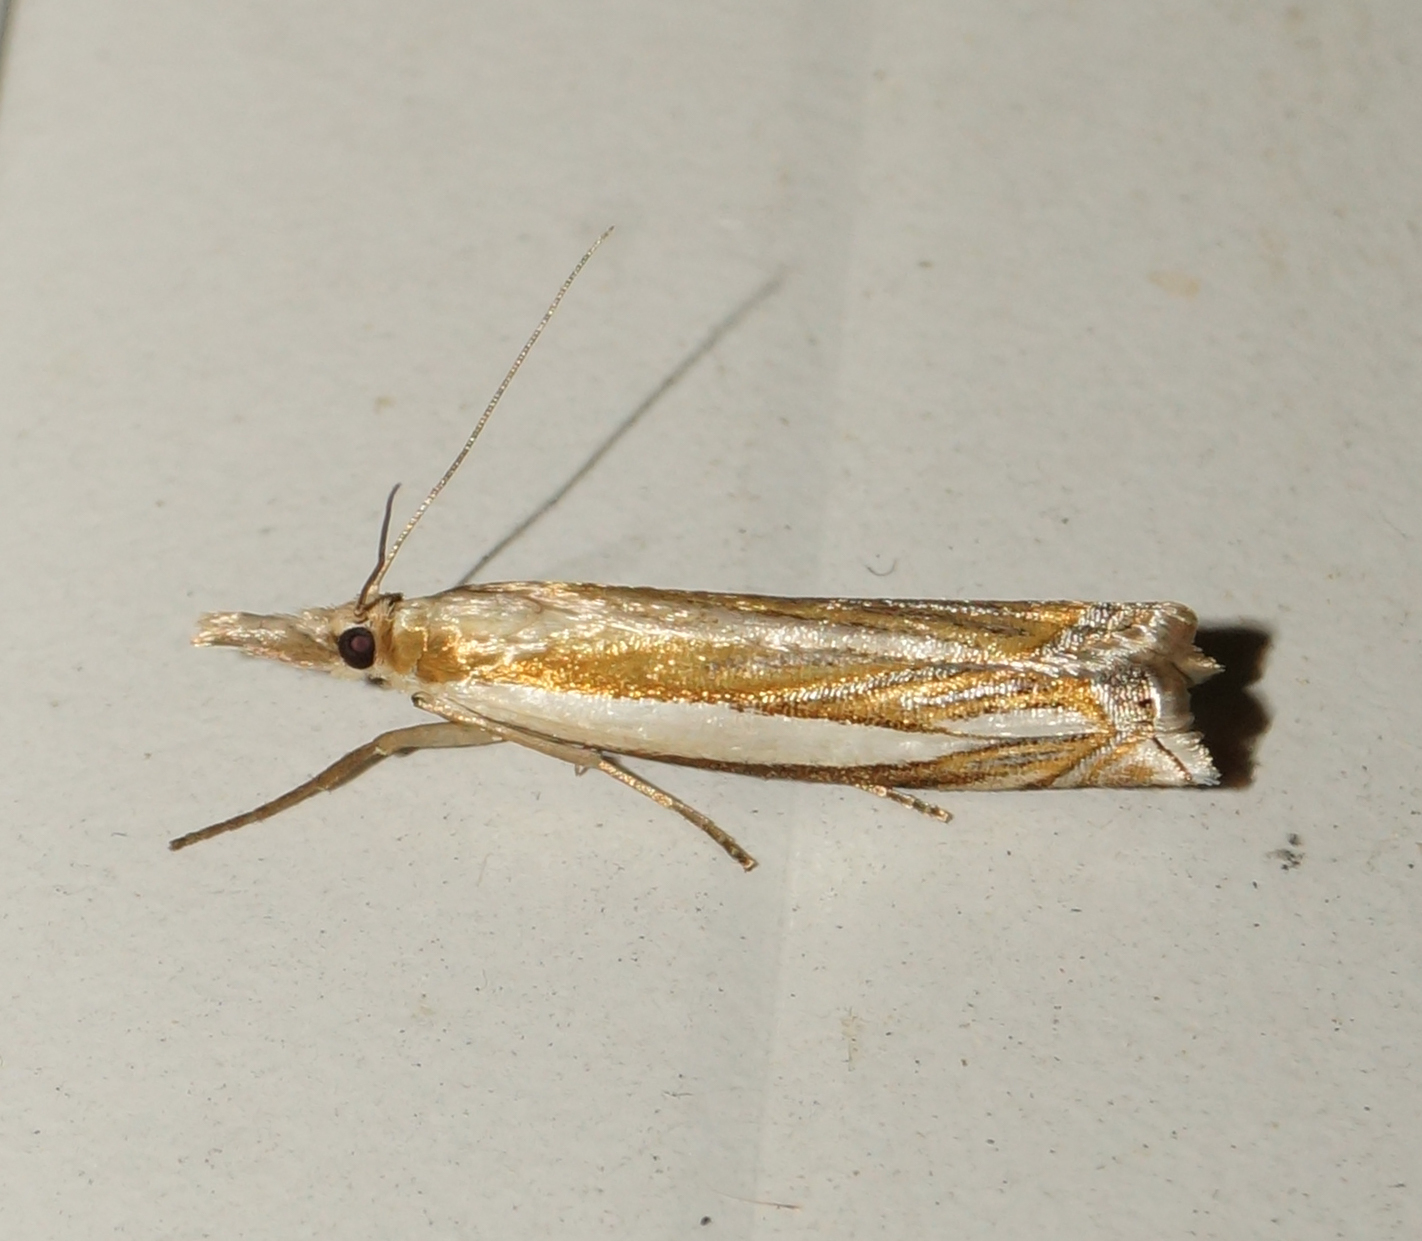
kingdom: Animalia
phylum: Arthropoda
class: Insecta
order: Lepidoptera
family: Crambidae
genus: Crambus
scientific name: Crambus pascuella
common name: Inlaid grass-veneer
